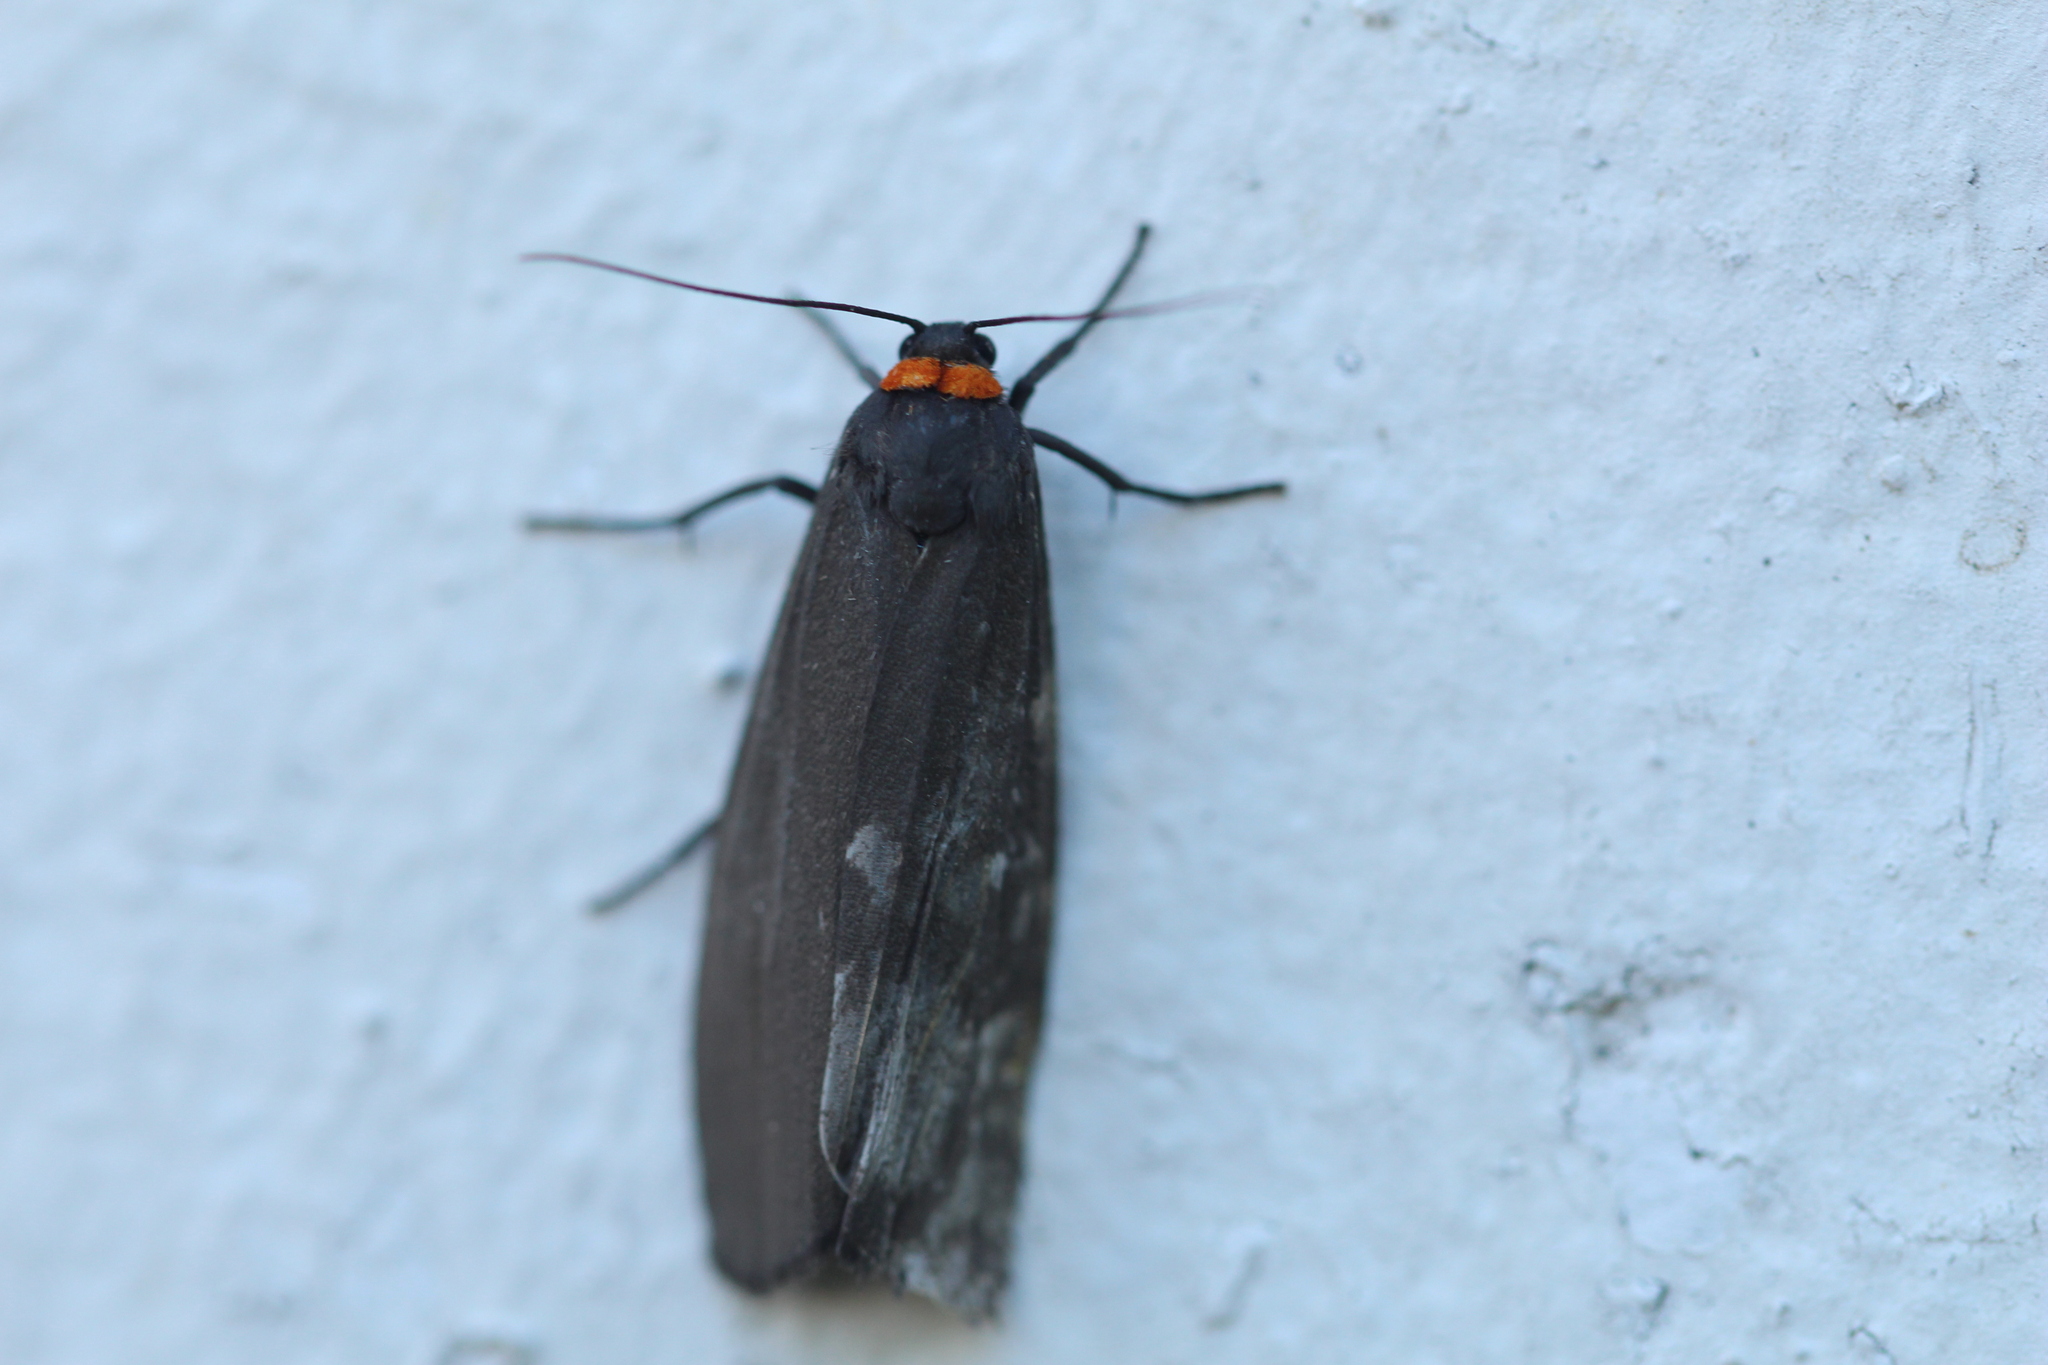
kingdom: Animalia
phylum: Arthropoda
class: Insecta
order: Lepidoptera
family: Erebidae
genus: Atolmis
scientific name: Atolmis rubricollis
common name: Red-necked footman
